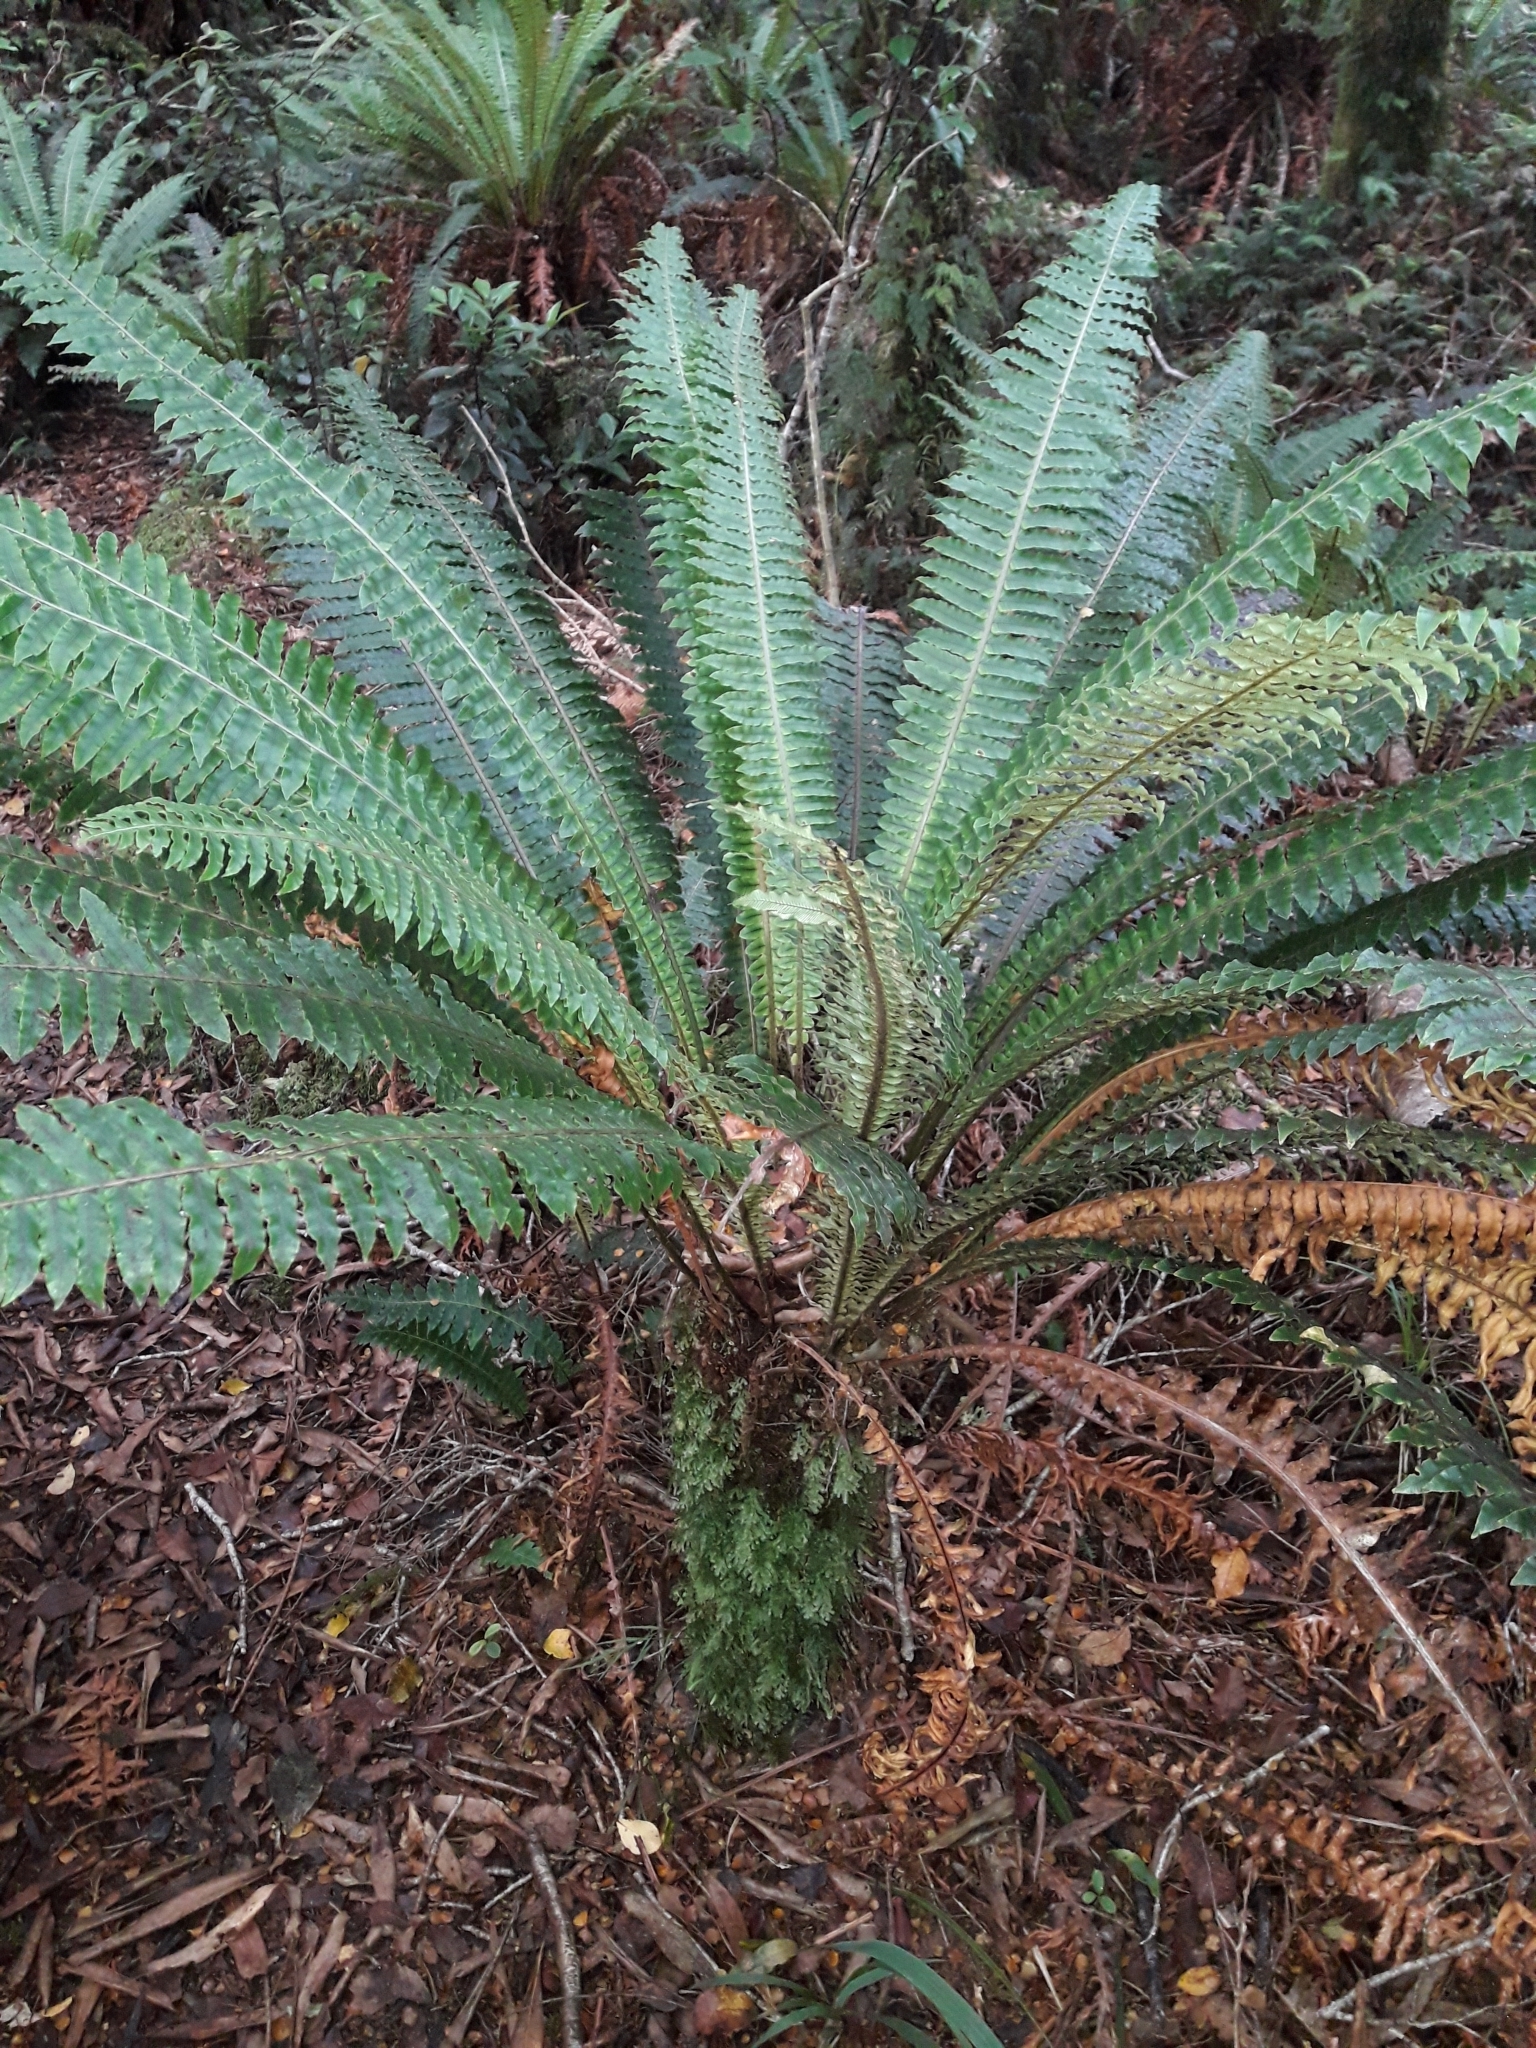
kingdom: Plantae
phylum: Tracheophyta
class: Polypodiopsida
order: Hymenophyllales
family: Hymenophyllaceae
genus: Polyphlebium
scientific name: Polyphlebium venosum
